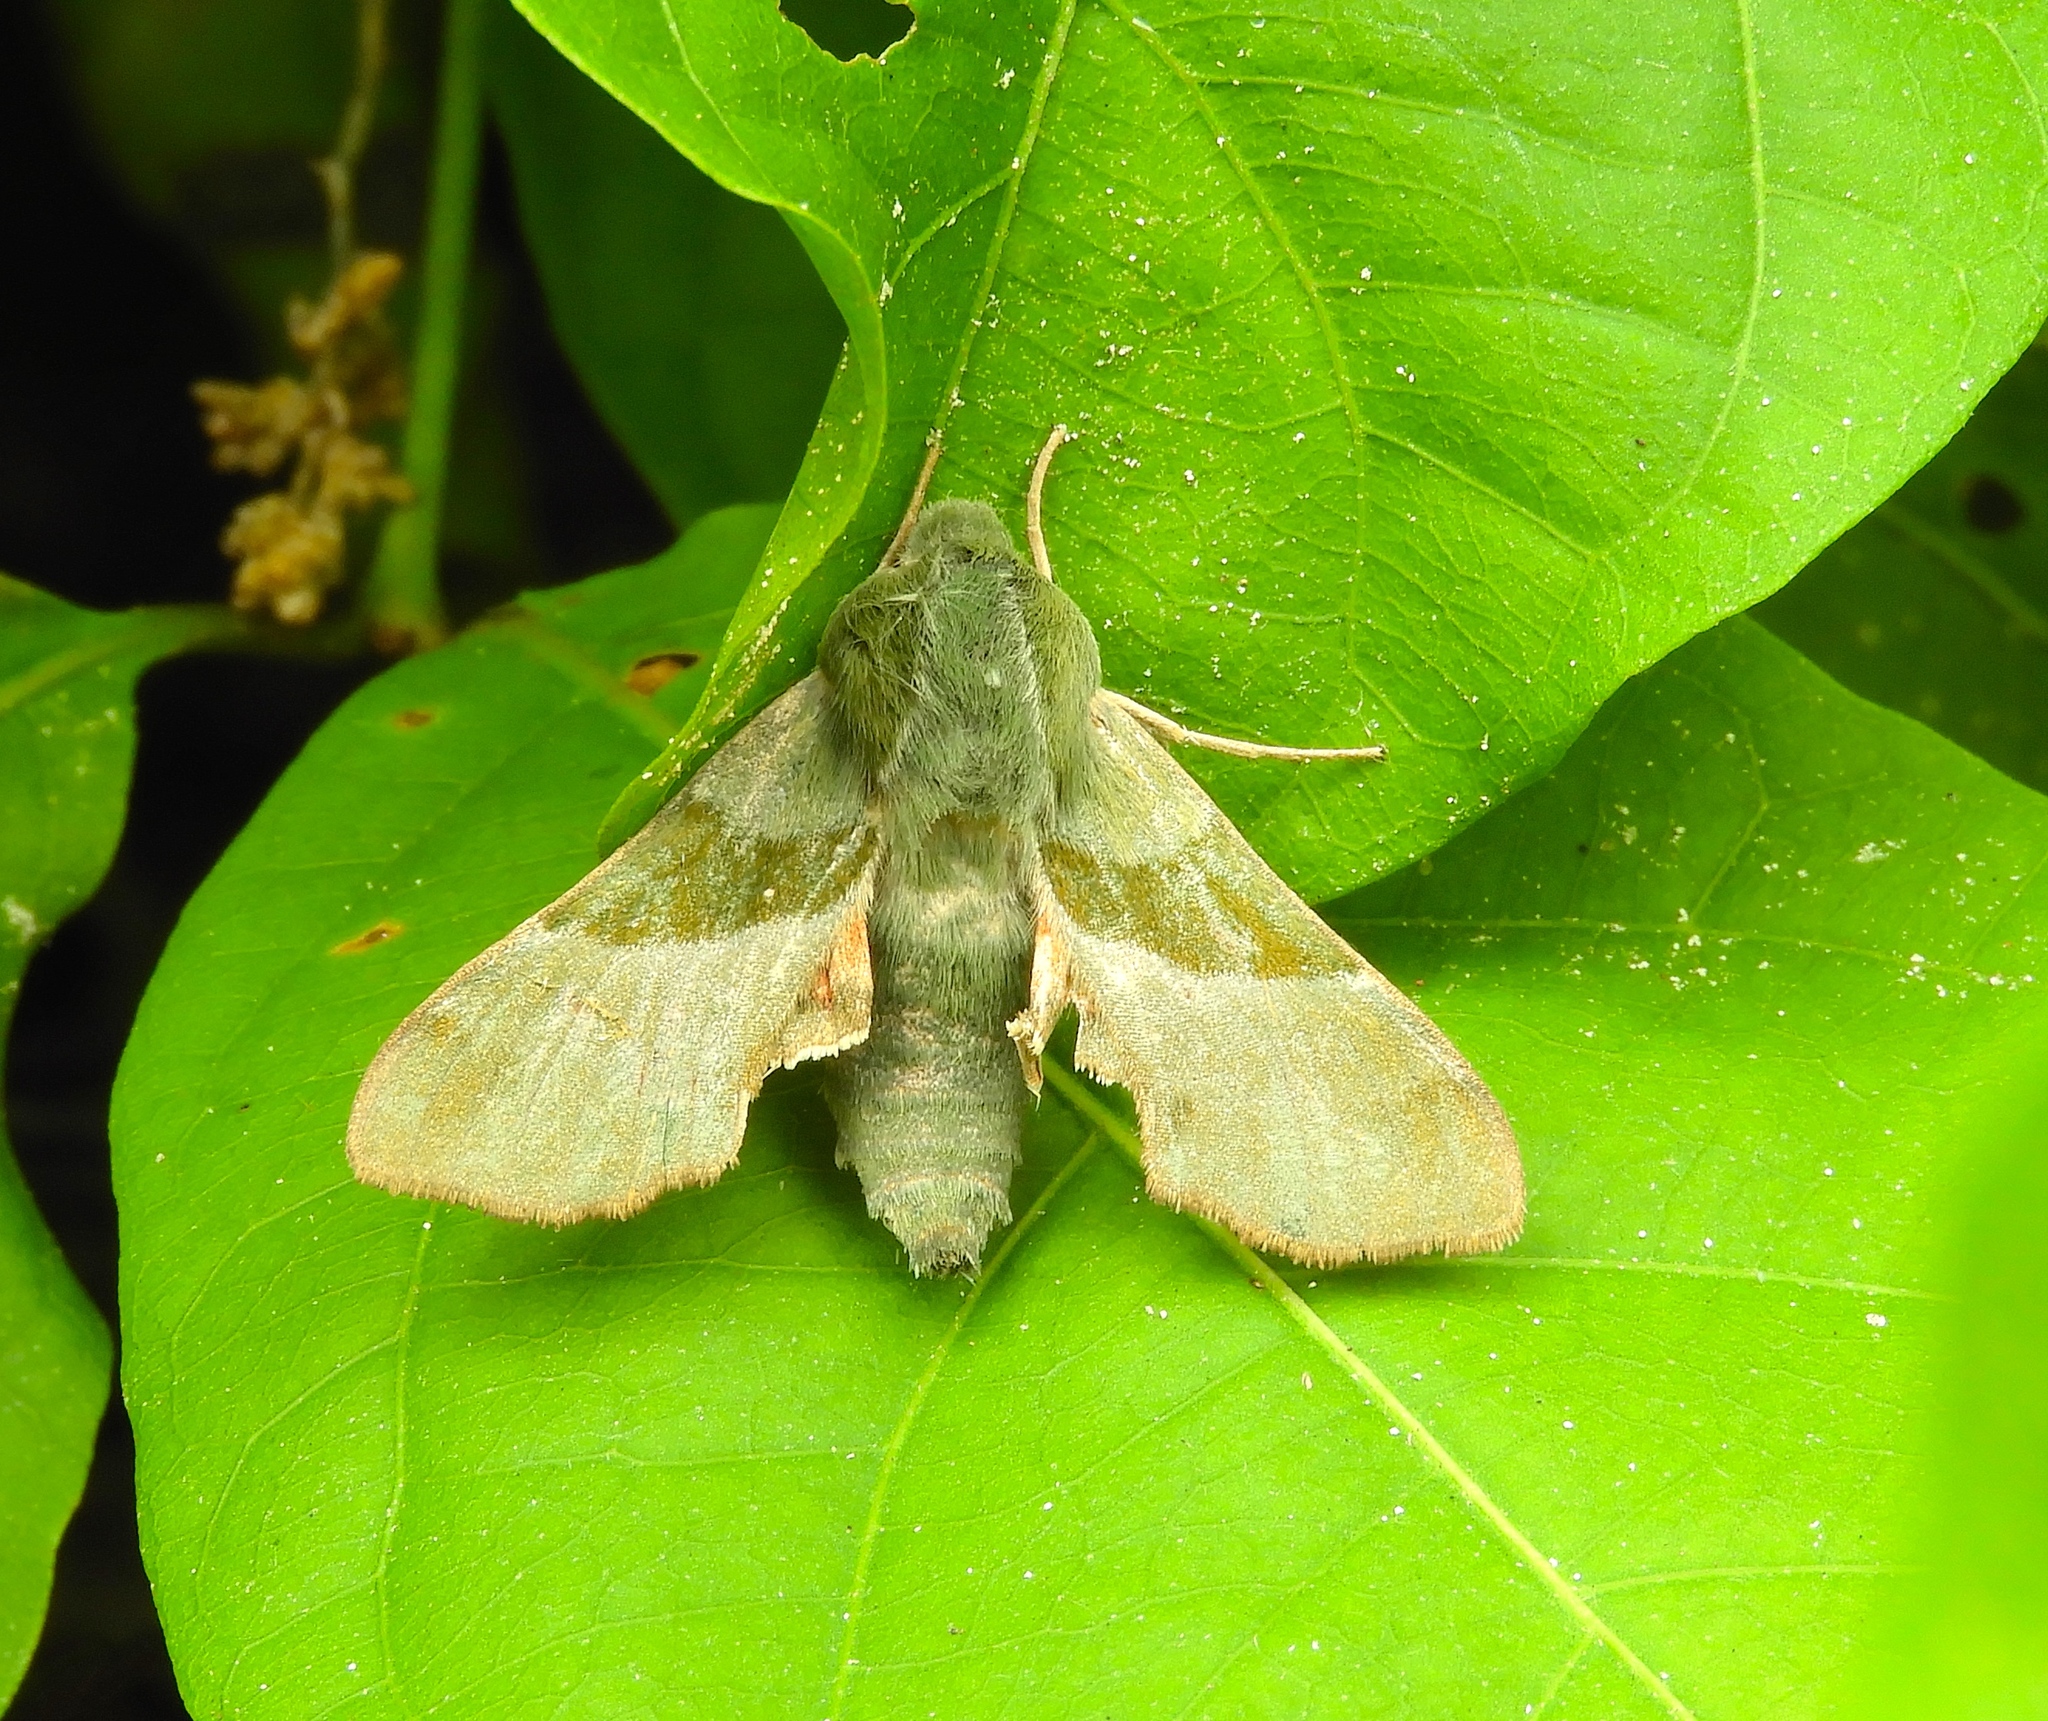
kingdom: Animalia
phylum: Arthropoda
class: Insecta
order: Lepidoptera
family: Sphingidae
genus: Proserpinus
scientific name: Proserpinus terlooii
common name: Terloo's sphinx
